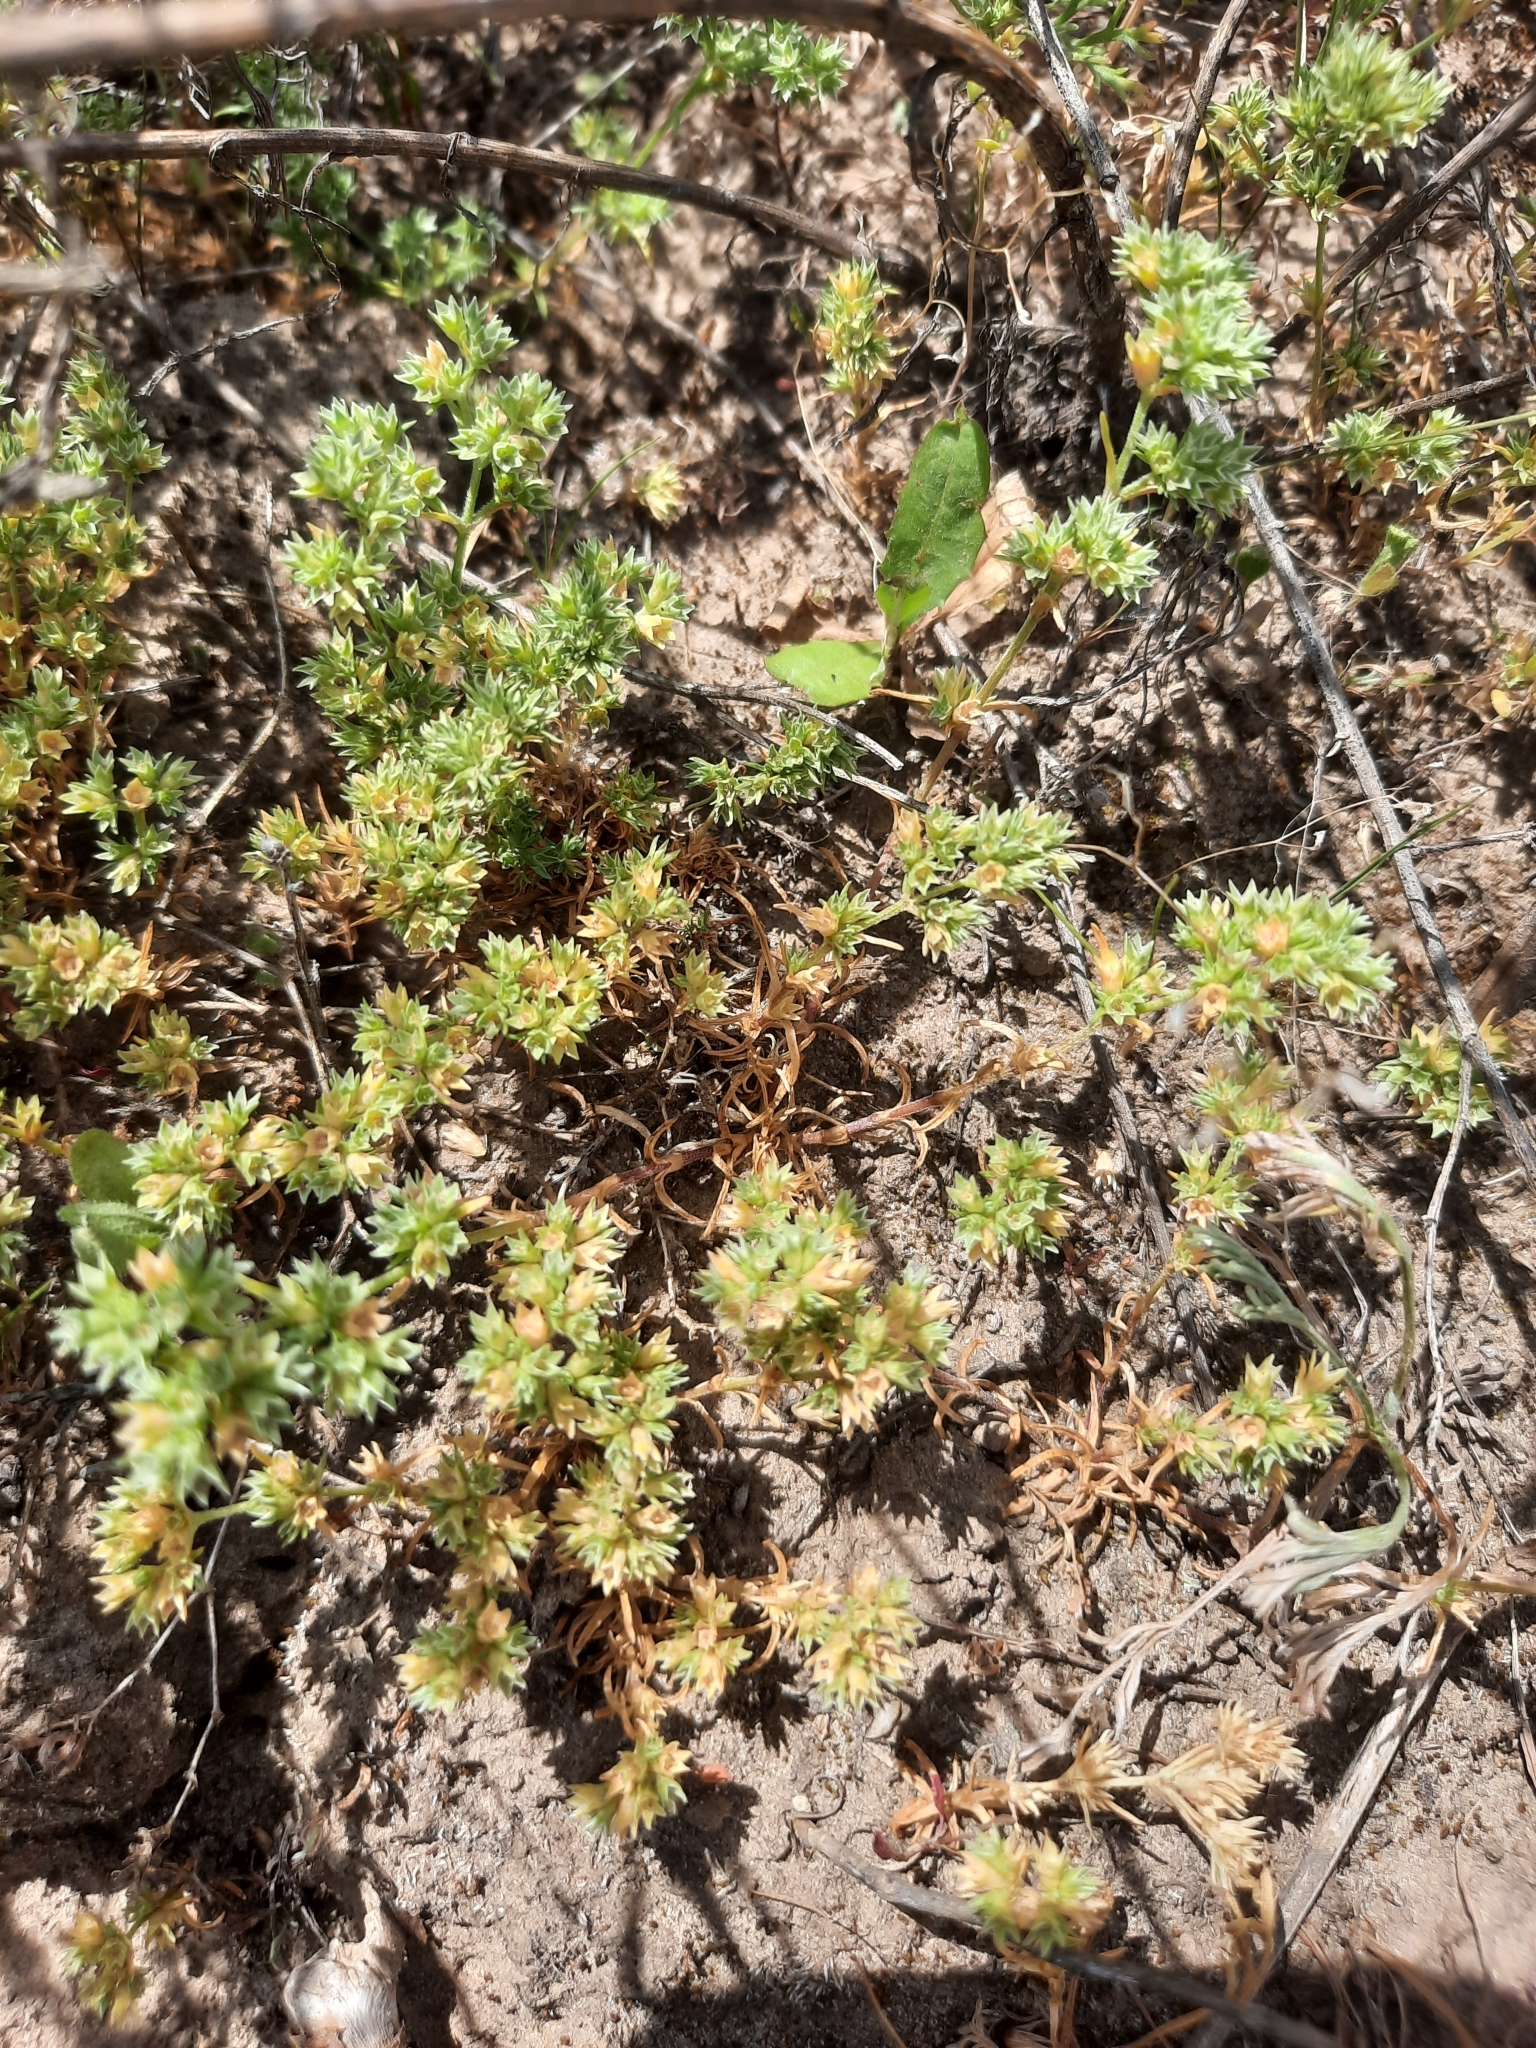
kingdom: Plantae
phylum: Tracheophyta
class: Magnoliopsida
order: Caryophyllales
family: Caryophyllaceae
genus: Scleranthus
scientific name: Scleranthus annuus
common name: Annual knawel
